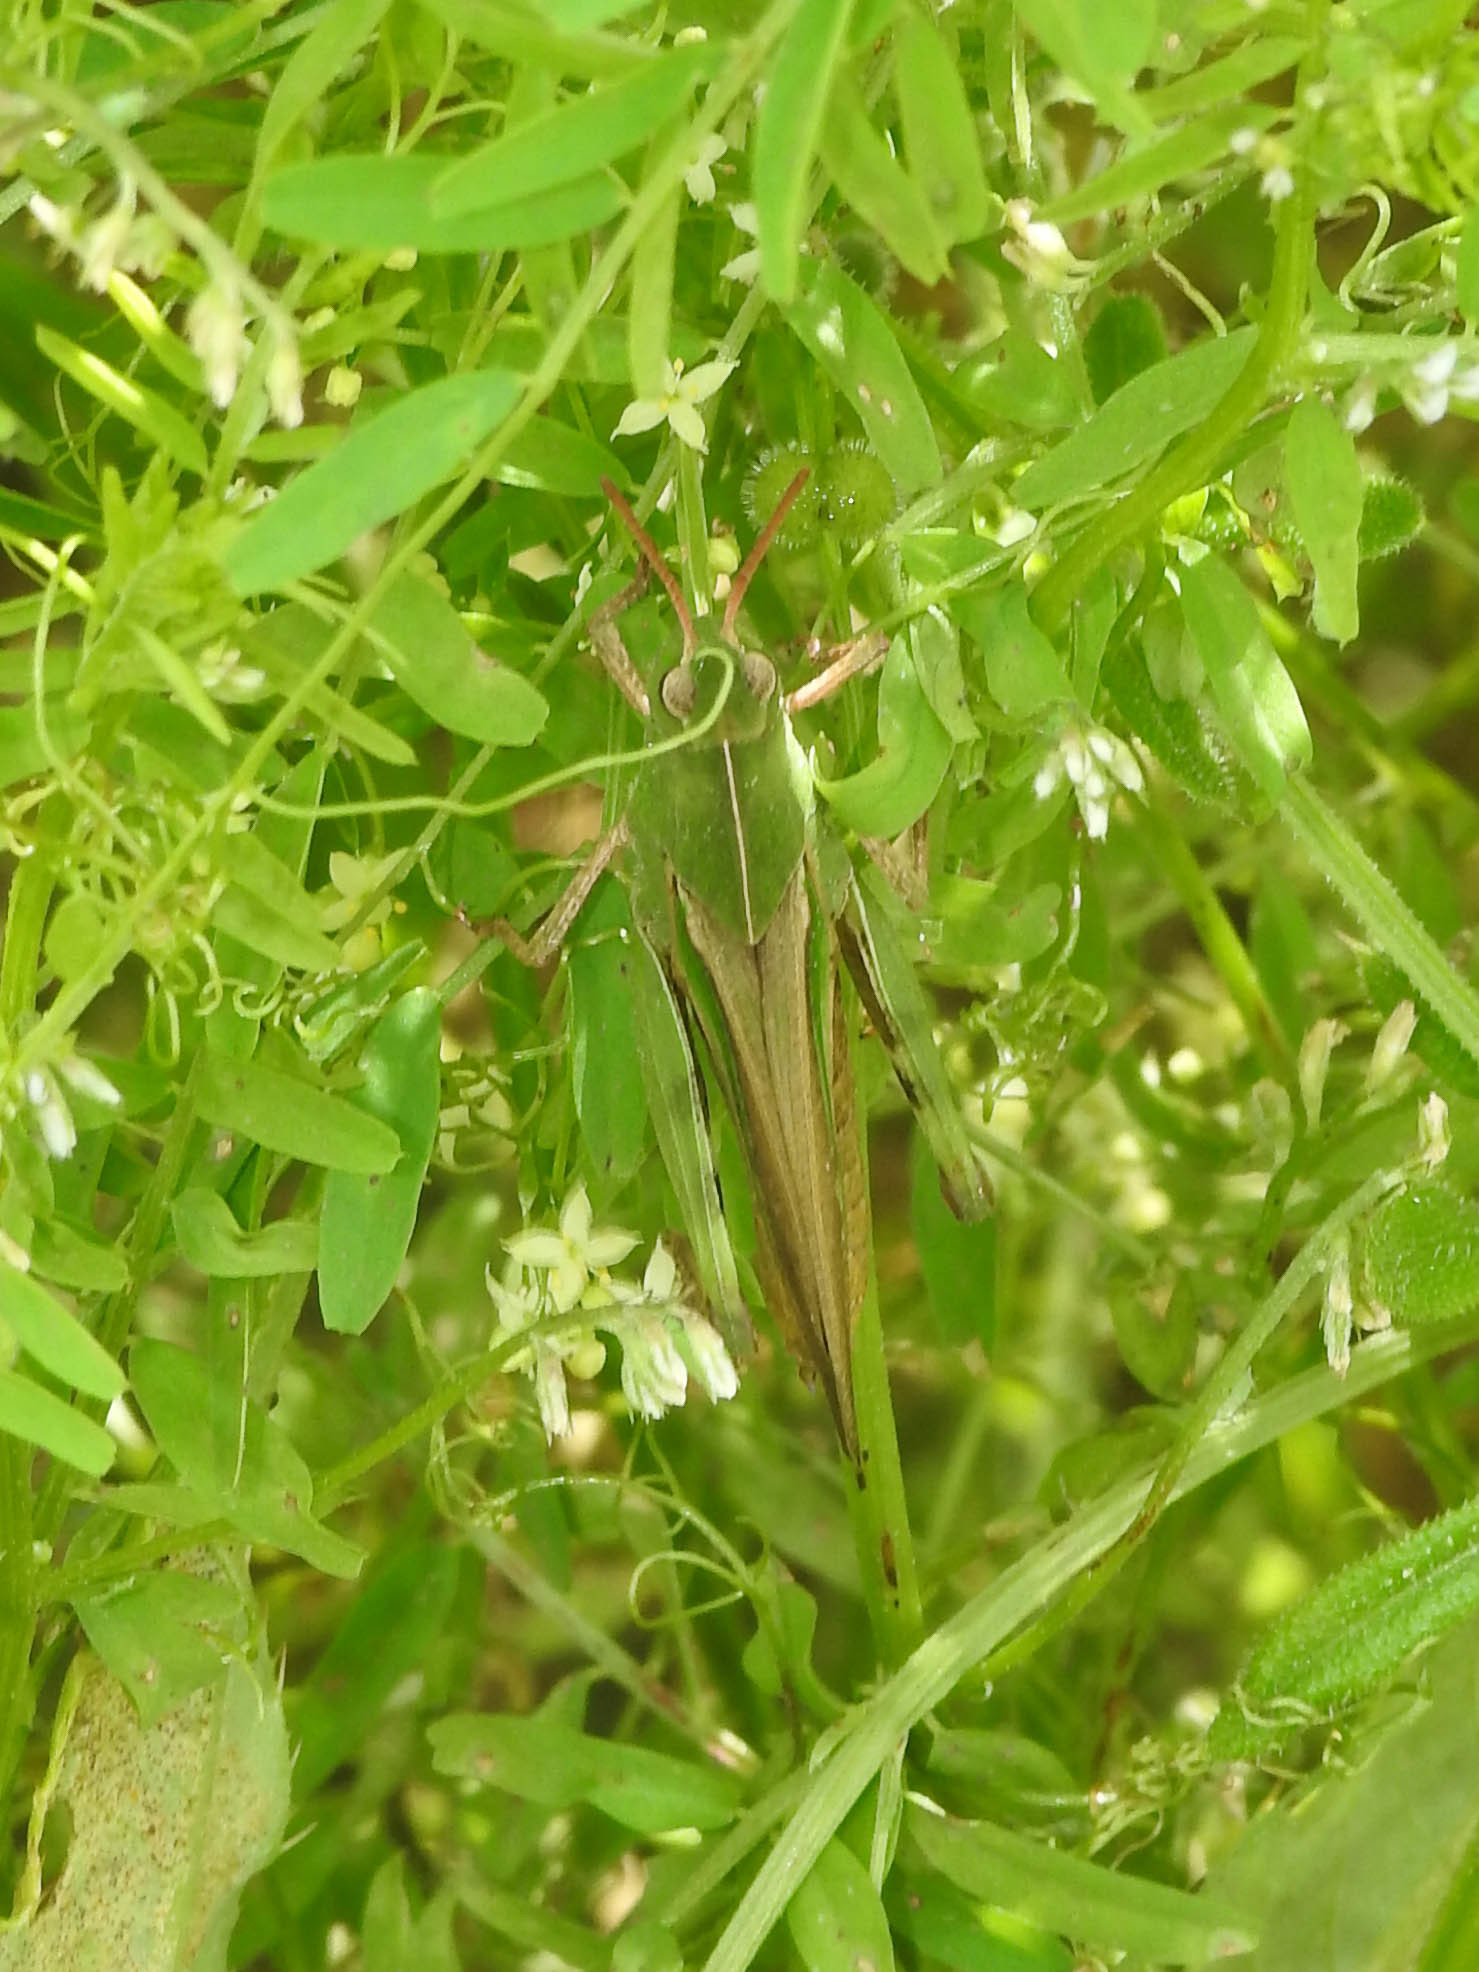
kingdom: Animalia
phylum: Arthropoda
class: Insecta
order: Orthoptera
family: Acrididae
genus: Chortophaga
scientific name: Chortophaga viridifasciata
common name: Green-striped grasshopper
